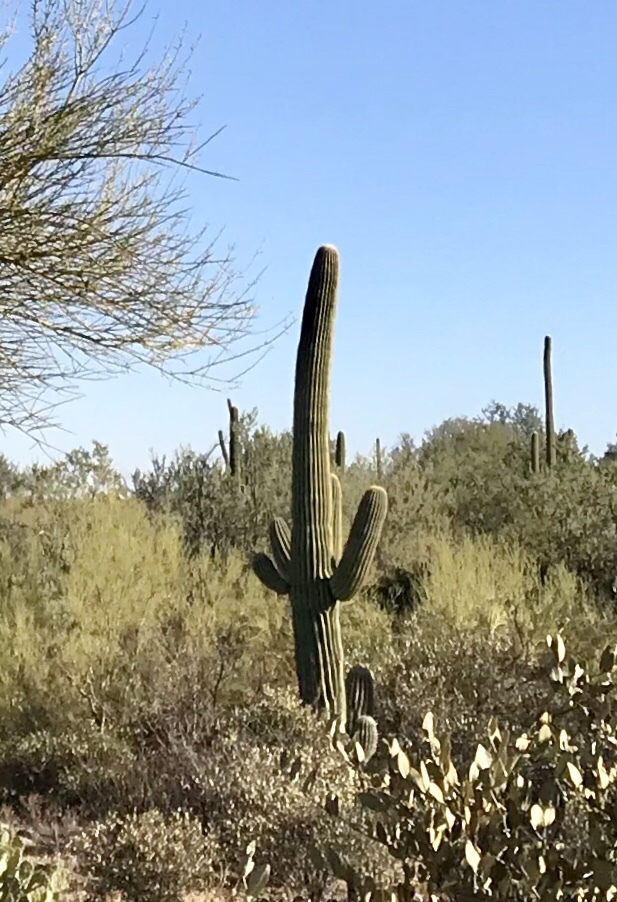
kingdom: Plantae
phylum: Tracheophyta
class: Magnoliopsida
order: Caryophyllales
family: Cactaceae
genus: Carnegiea
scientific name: Carnegiea gigantea
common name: Saguaro
